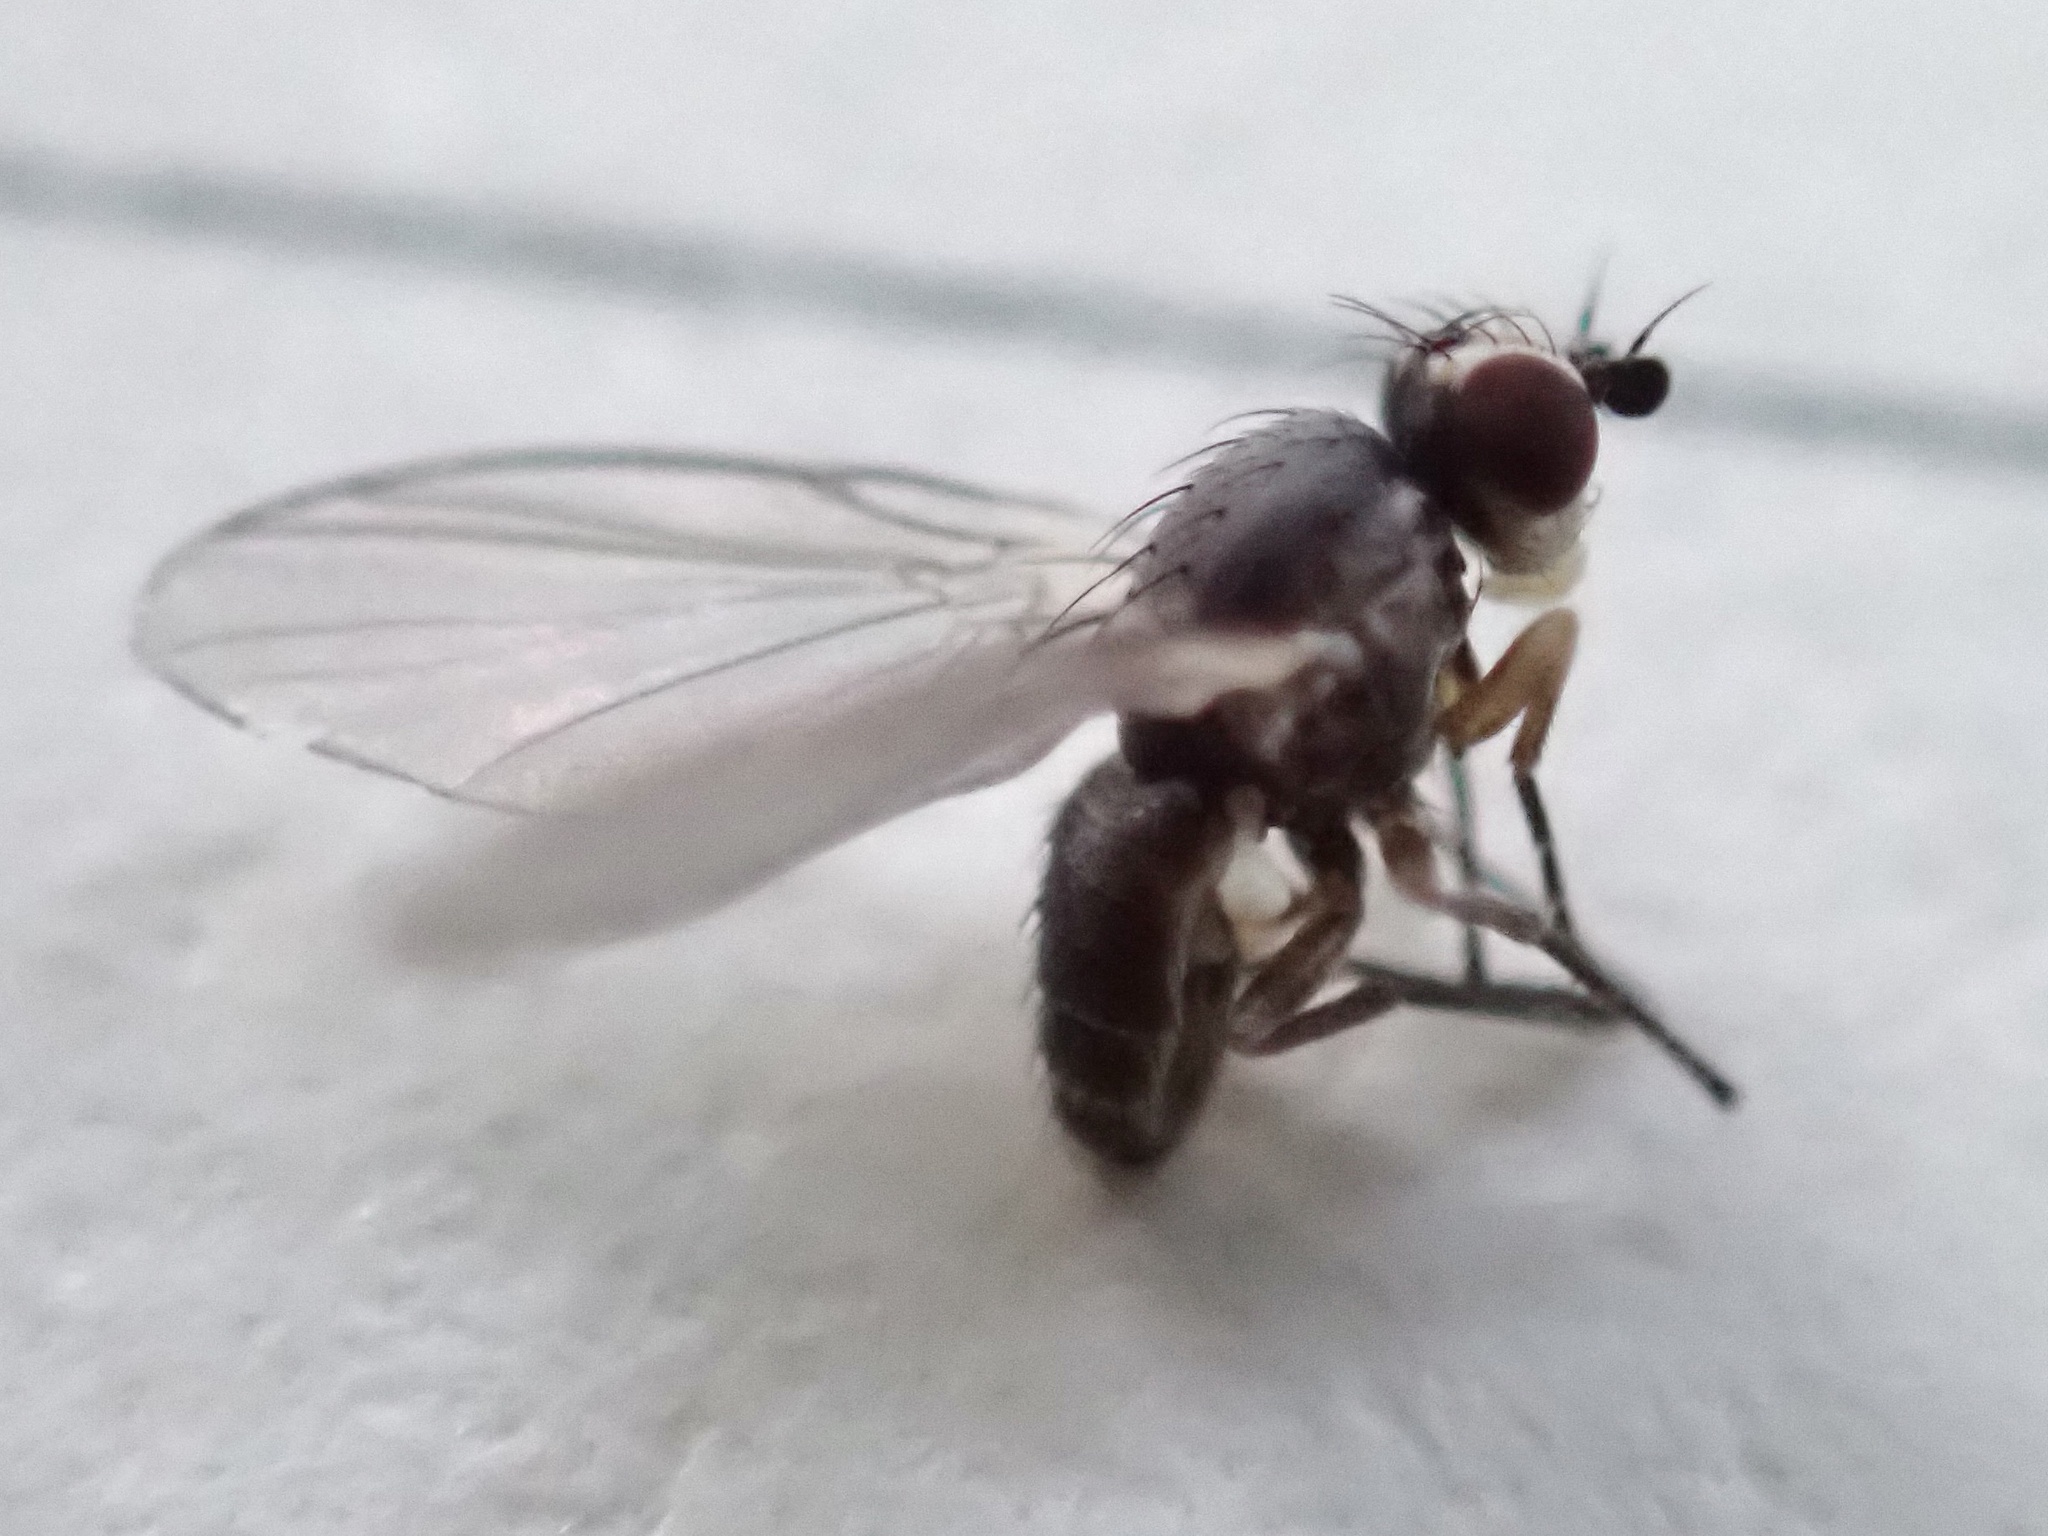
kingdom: Animalia
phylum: Arthropoda
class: Insecta
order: Diptera
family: Agromyzidae
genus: Phytomyza
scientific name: Phytomyza hellebori
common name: Fly
